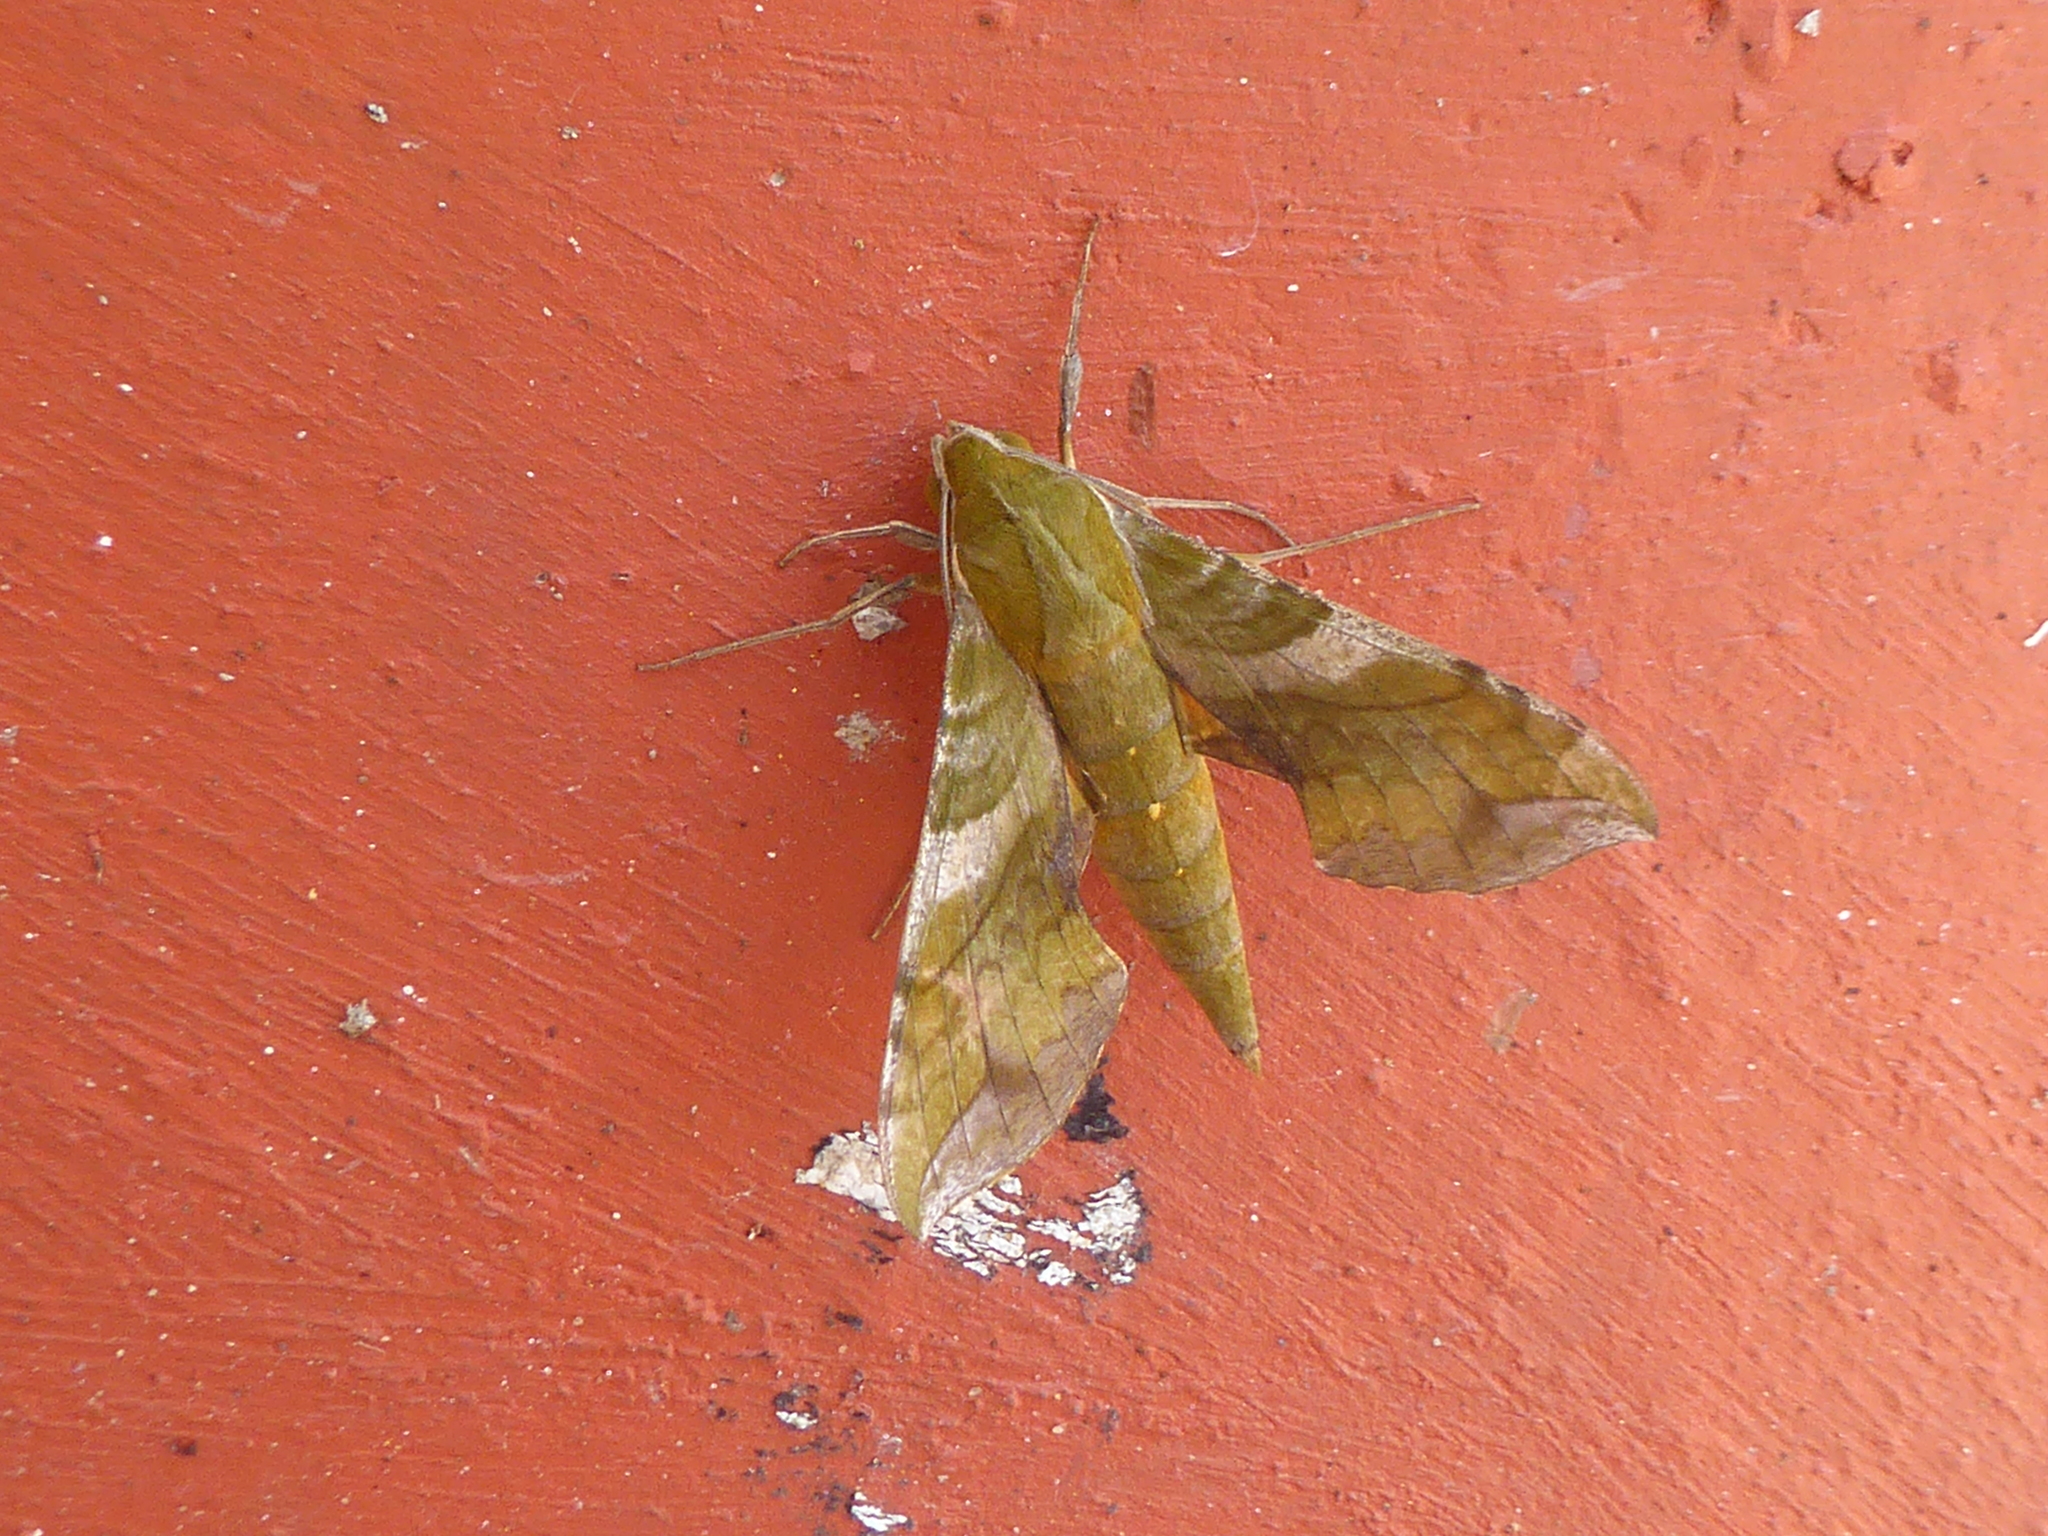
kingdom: Animalia
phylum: Arthropoda
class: Insecta
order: Lepidoptera
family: Sphingidae
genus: Xylophanes
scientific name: Xylophanes pluto
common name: Pluto sphinx
